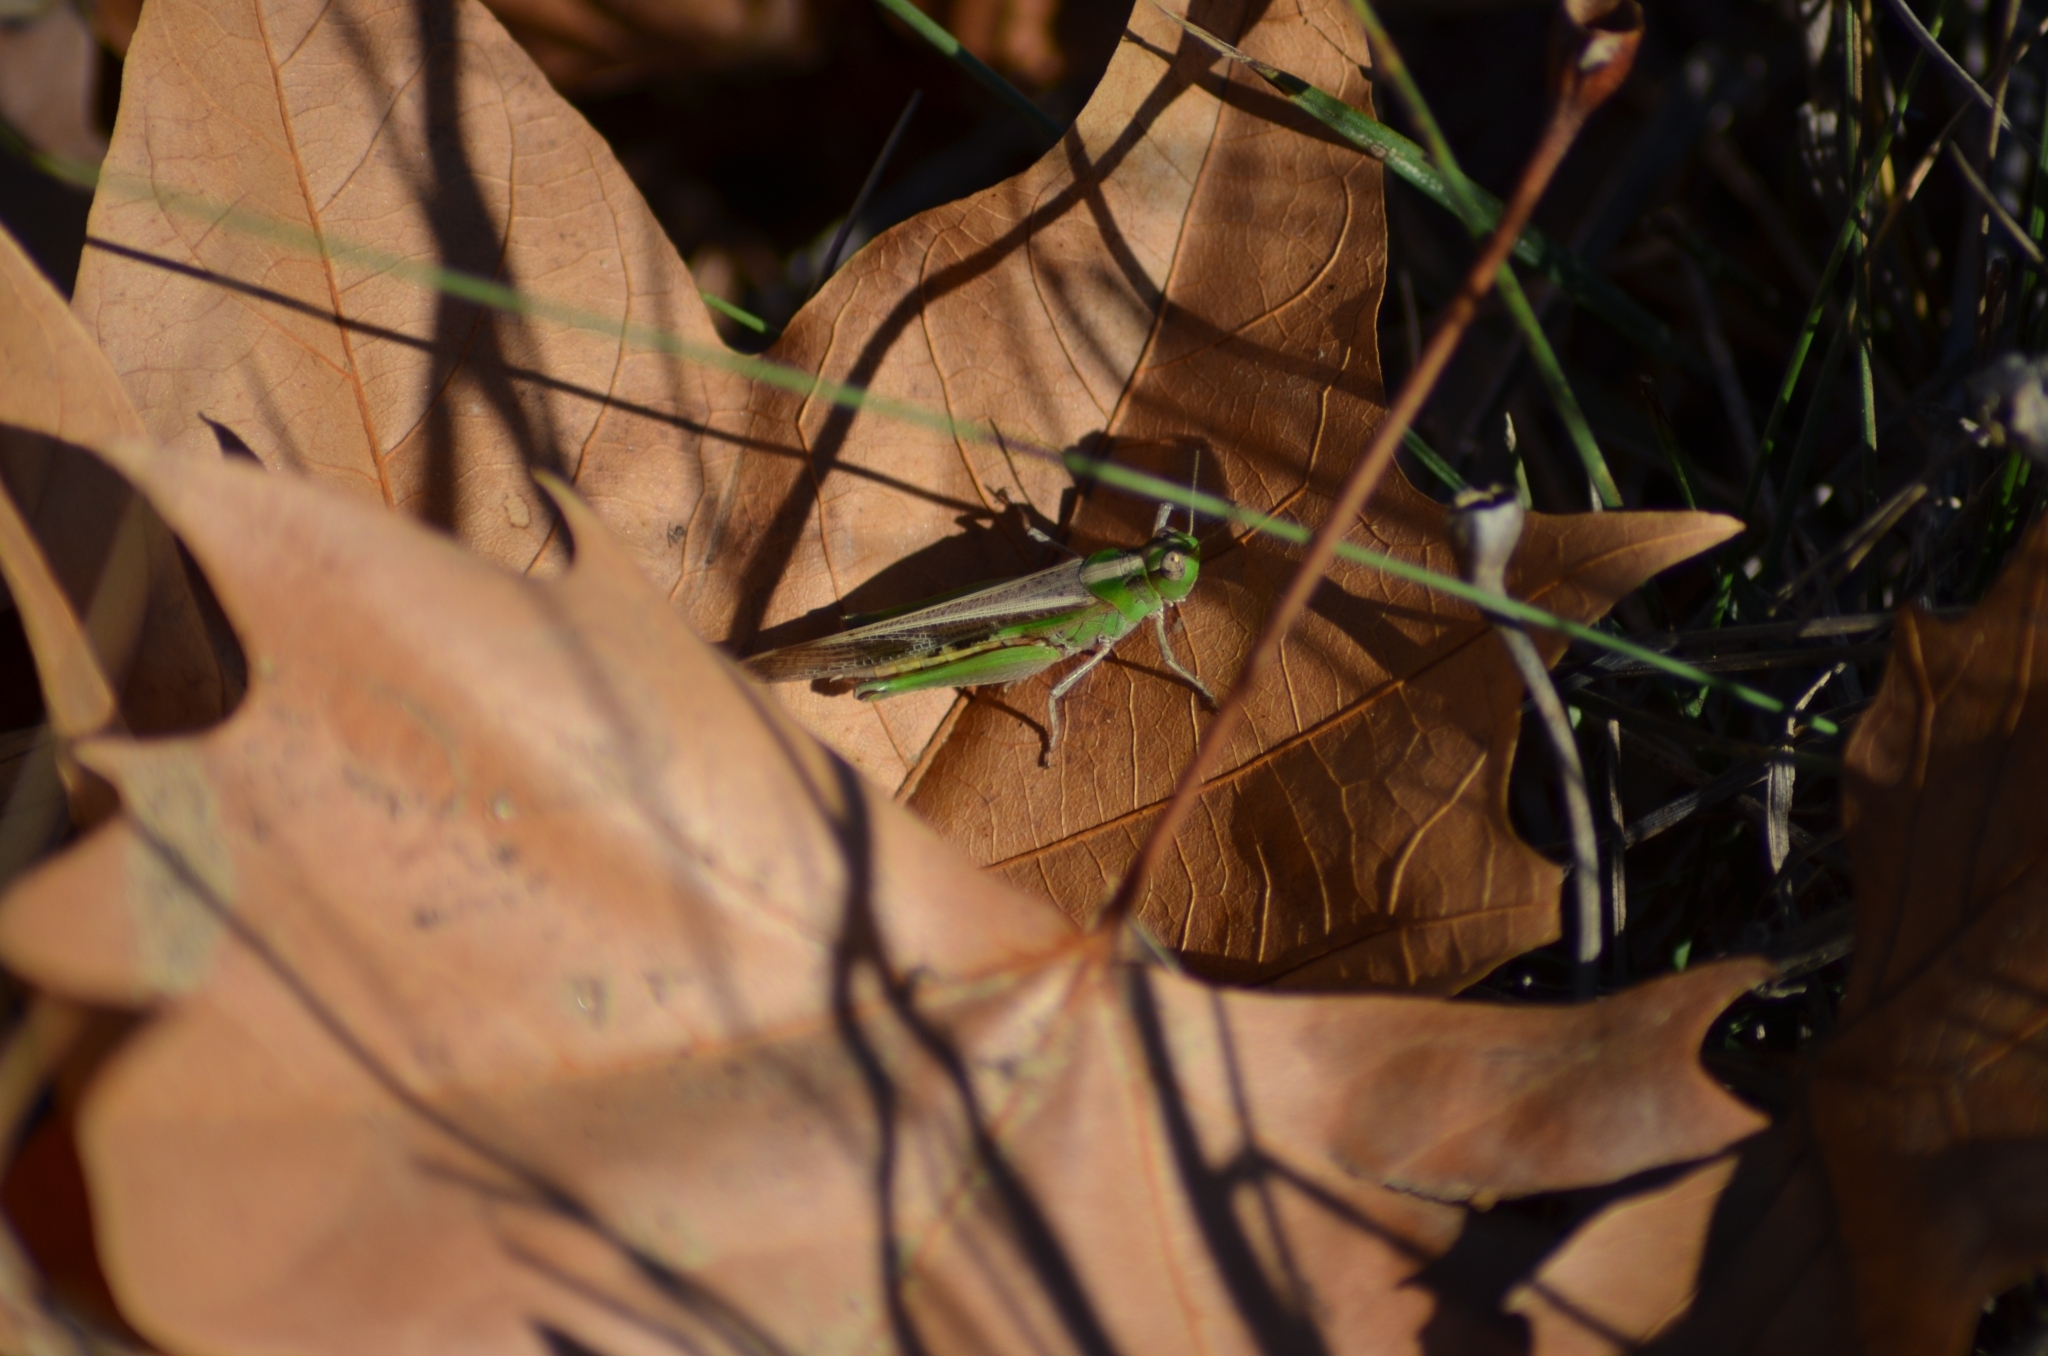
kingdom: Animalia
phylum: Arthropoda
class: Insecta
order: Orthoptera
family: Acrididae
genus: Aiolopus
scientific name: Aiolopus puissanti
